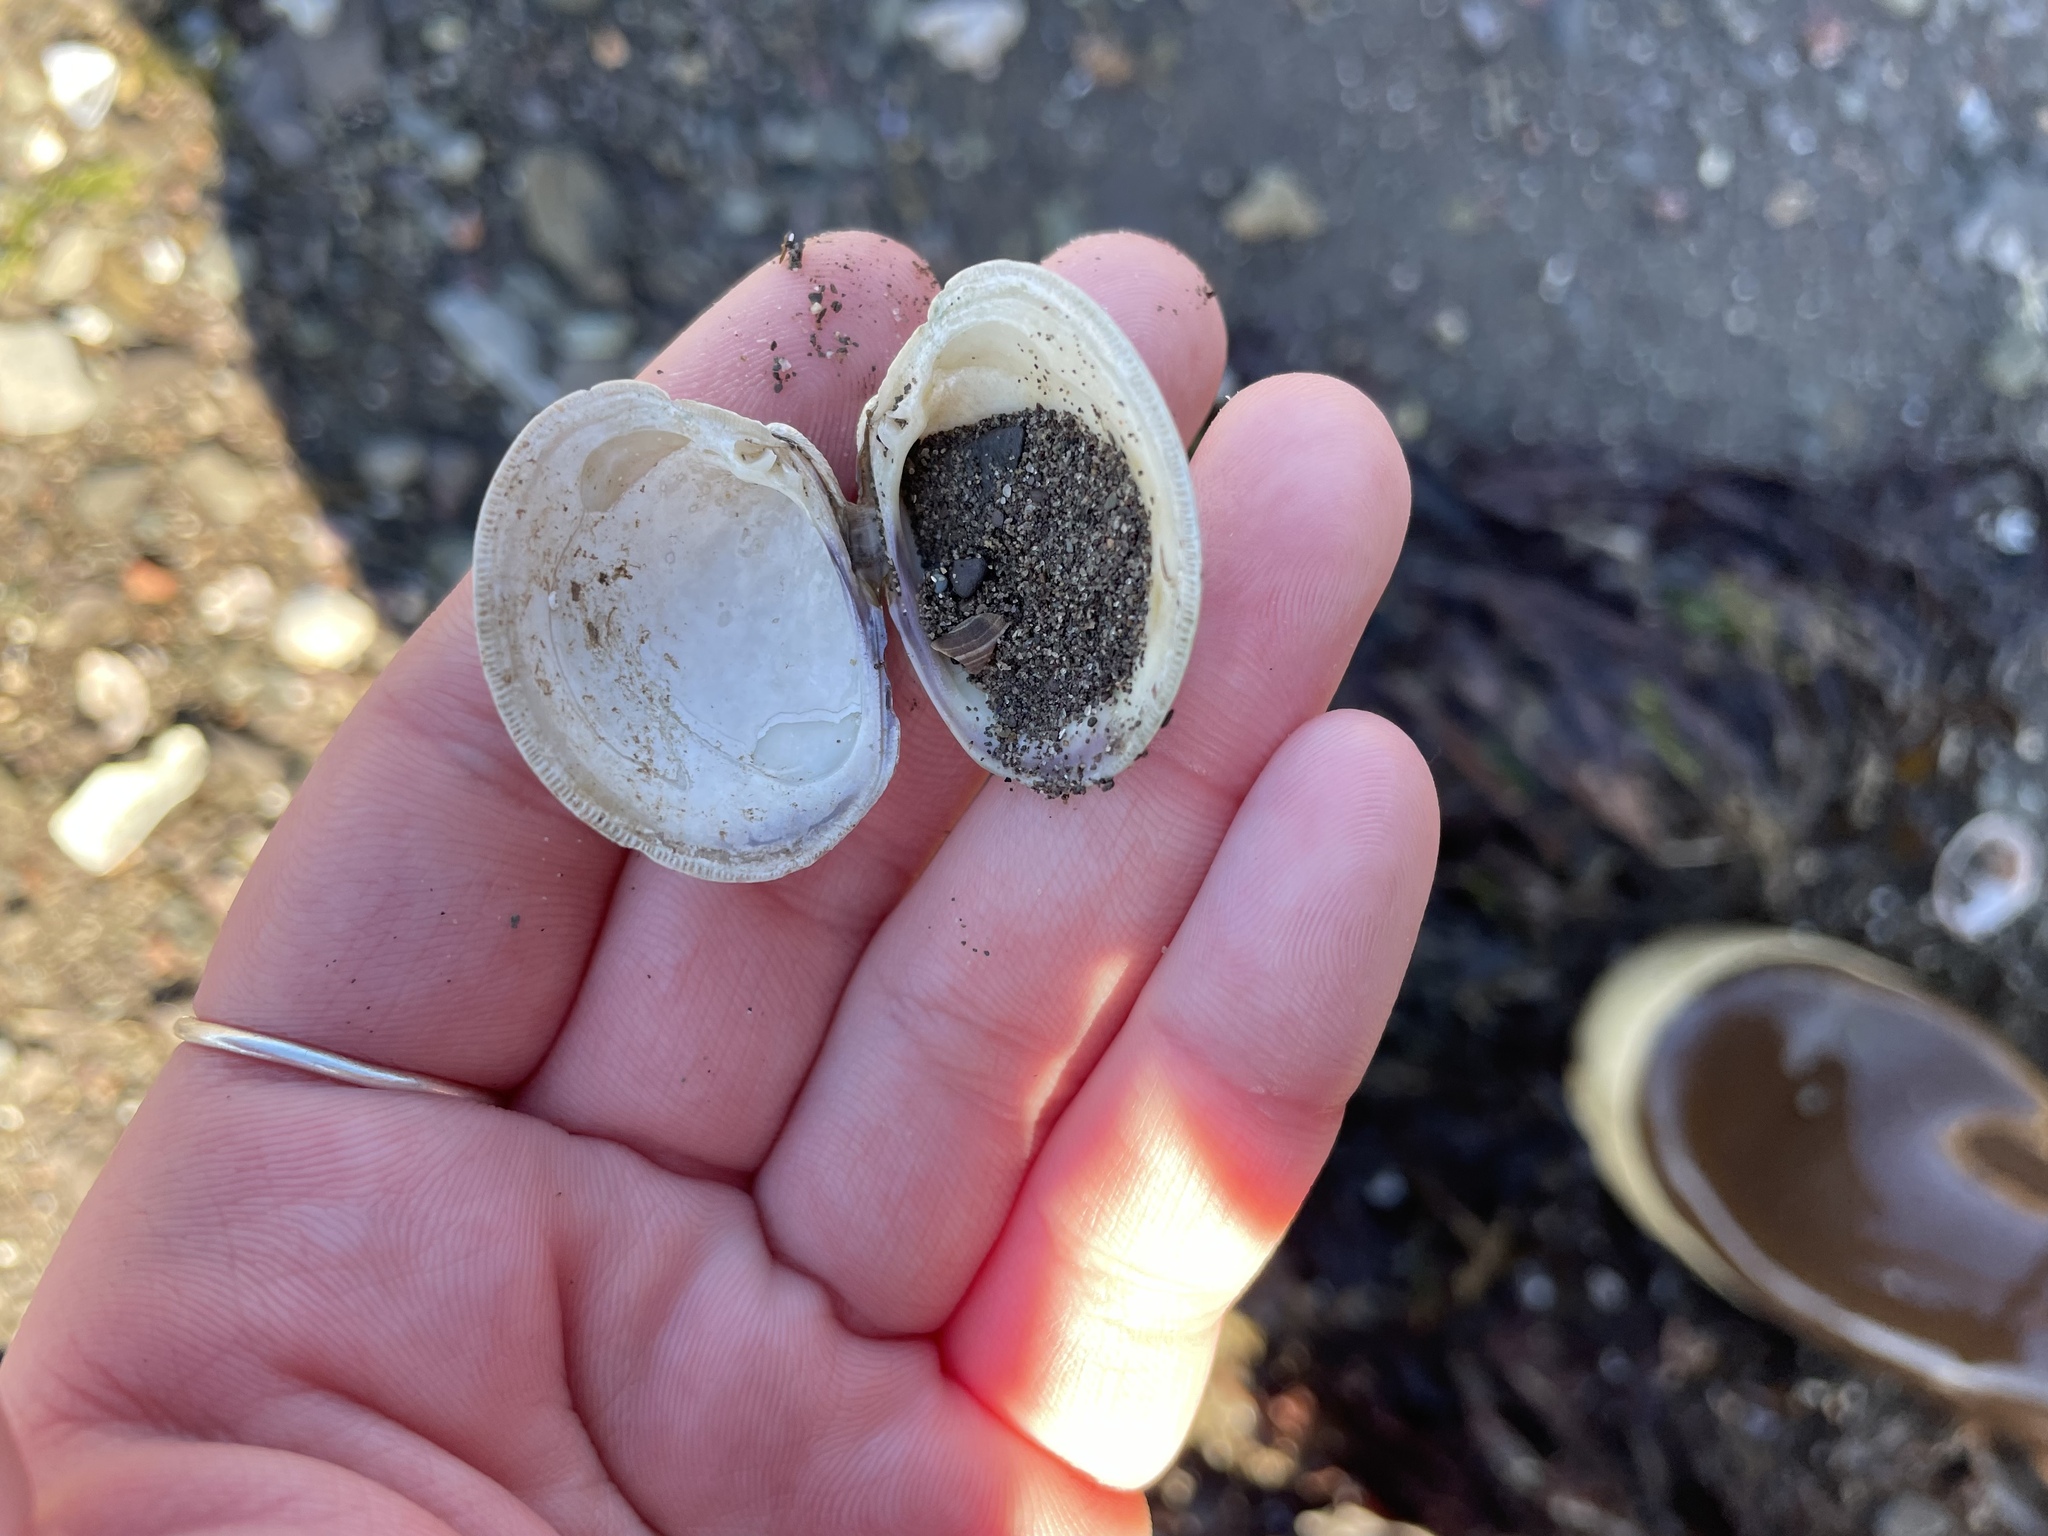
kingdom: Animalia
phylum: Mollusca
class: Bivalvia
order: Venerida
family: Veneridae
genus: Mercenaria
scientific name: Mercenaria mercenaria
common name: American hard-shelled clam
